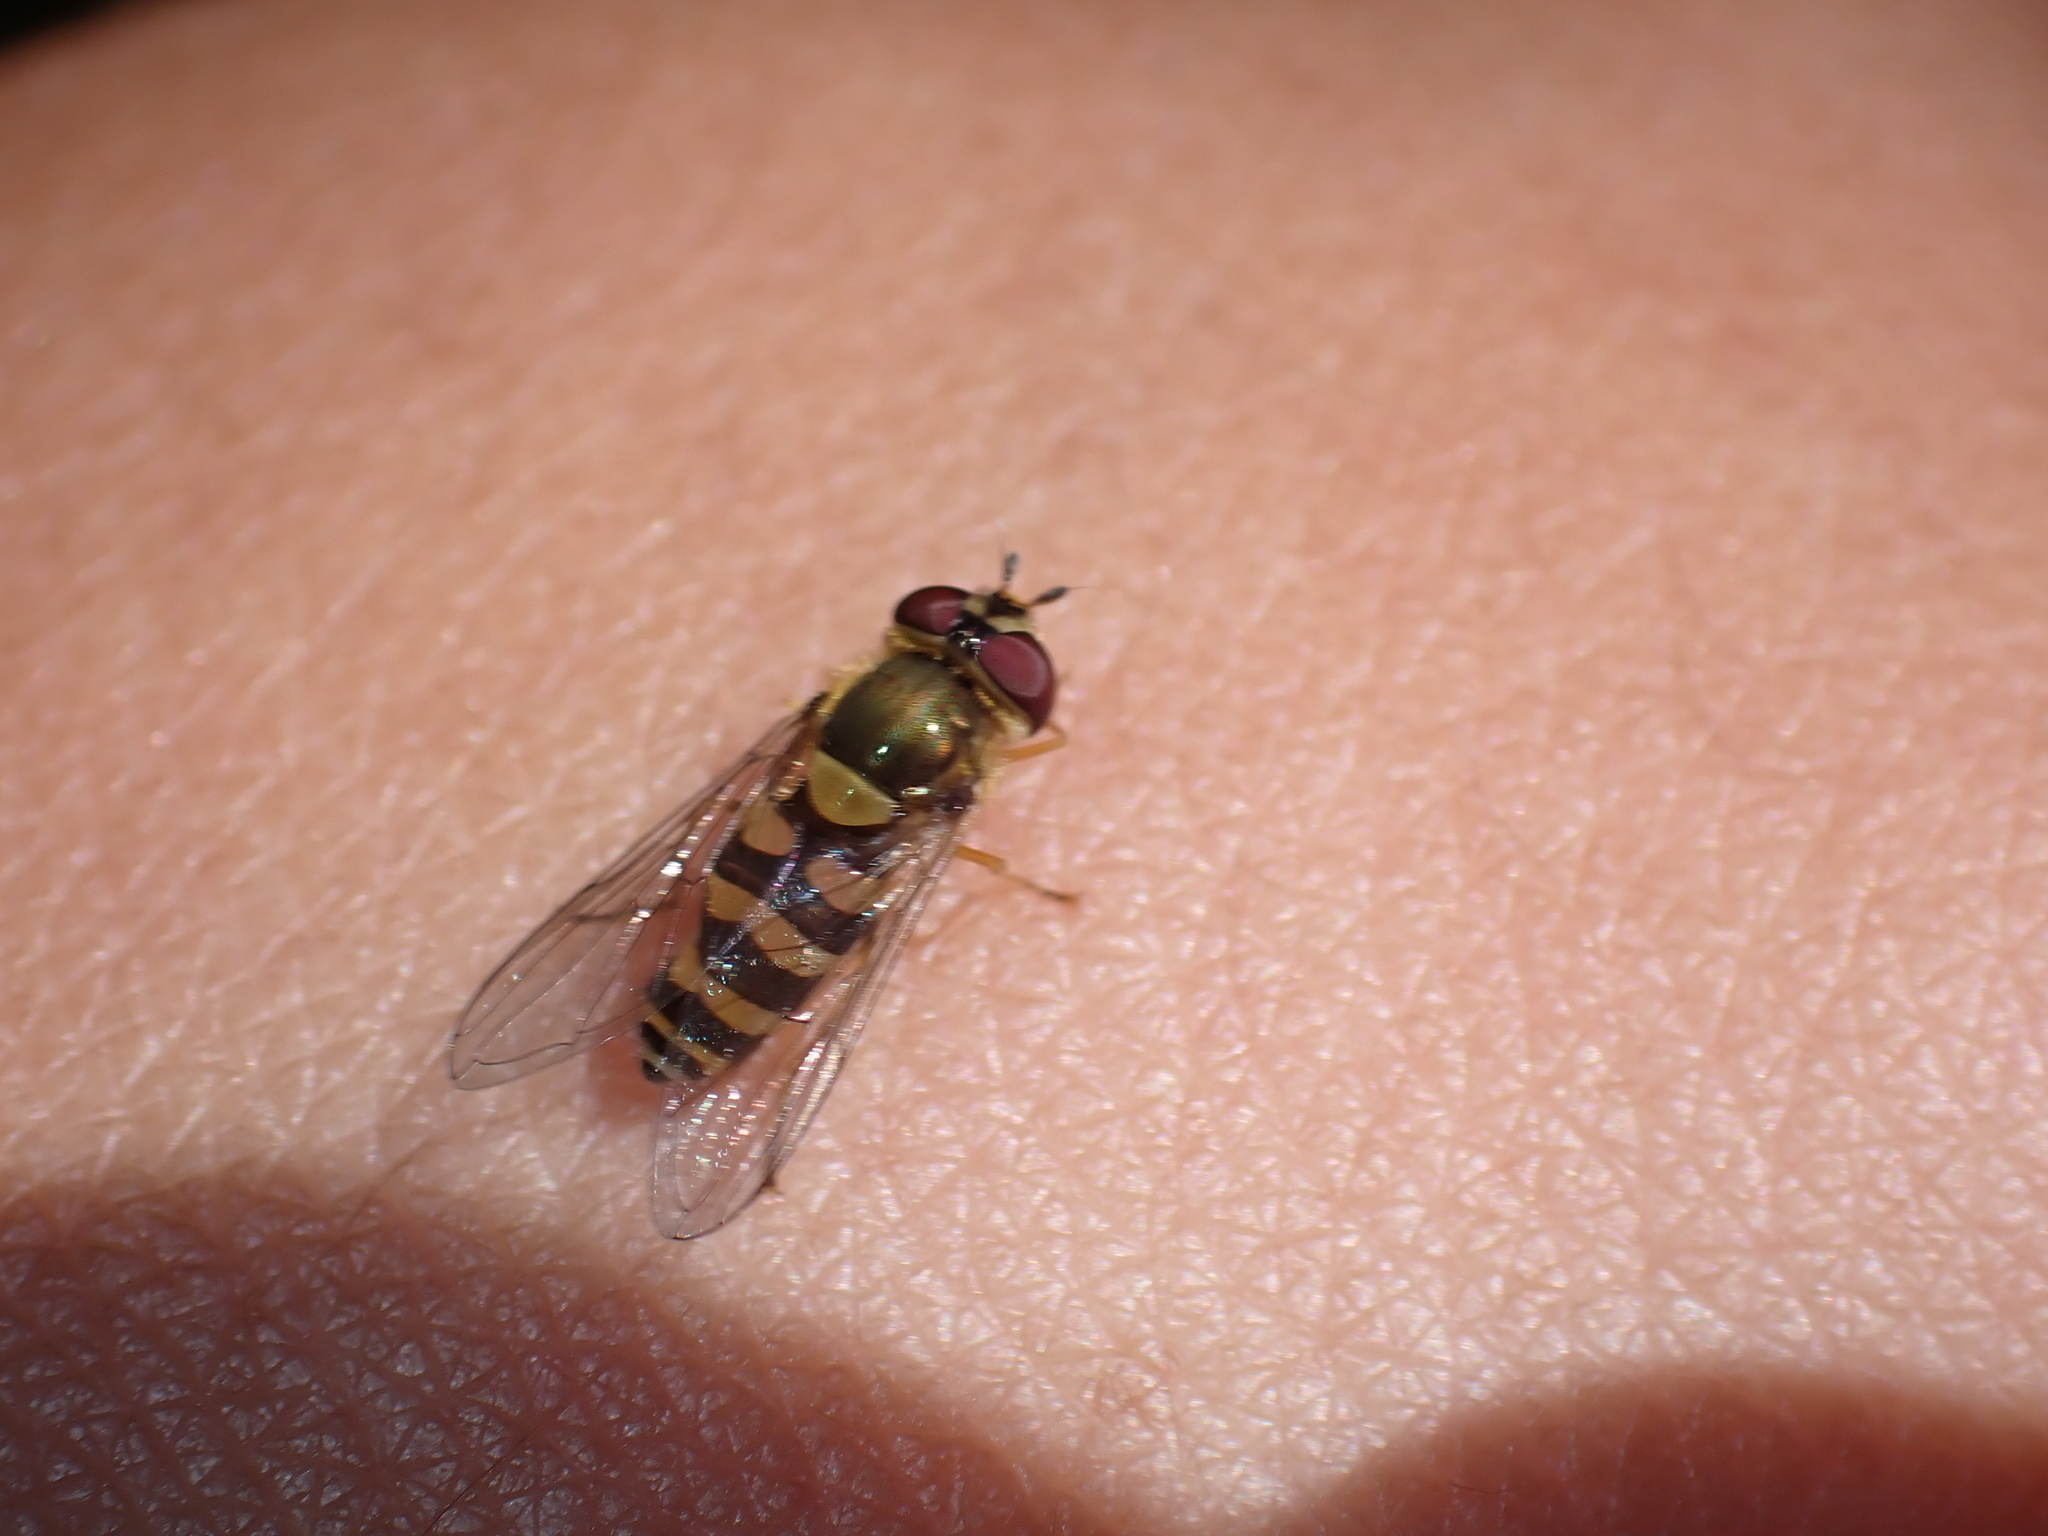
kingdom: Animalia
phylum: Arthropoda
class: Insecta
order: Diptera
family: Syrphidae
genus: Syrphus
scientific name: Syrphus
